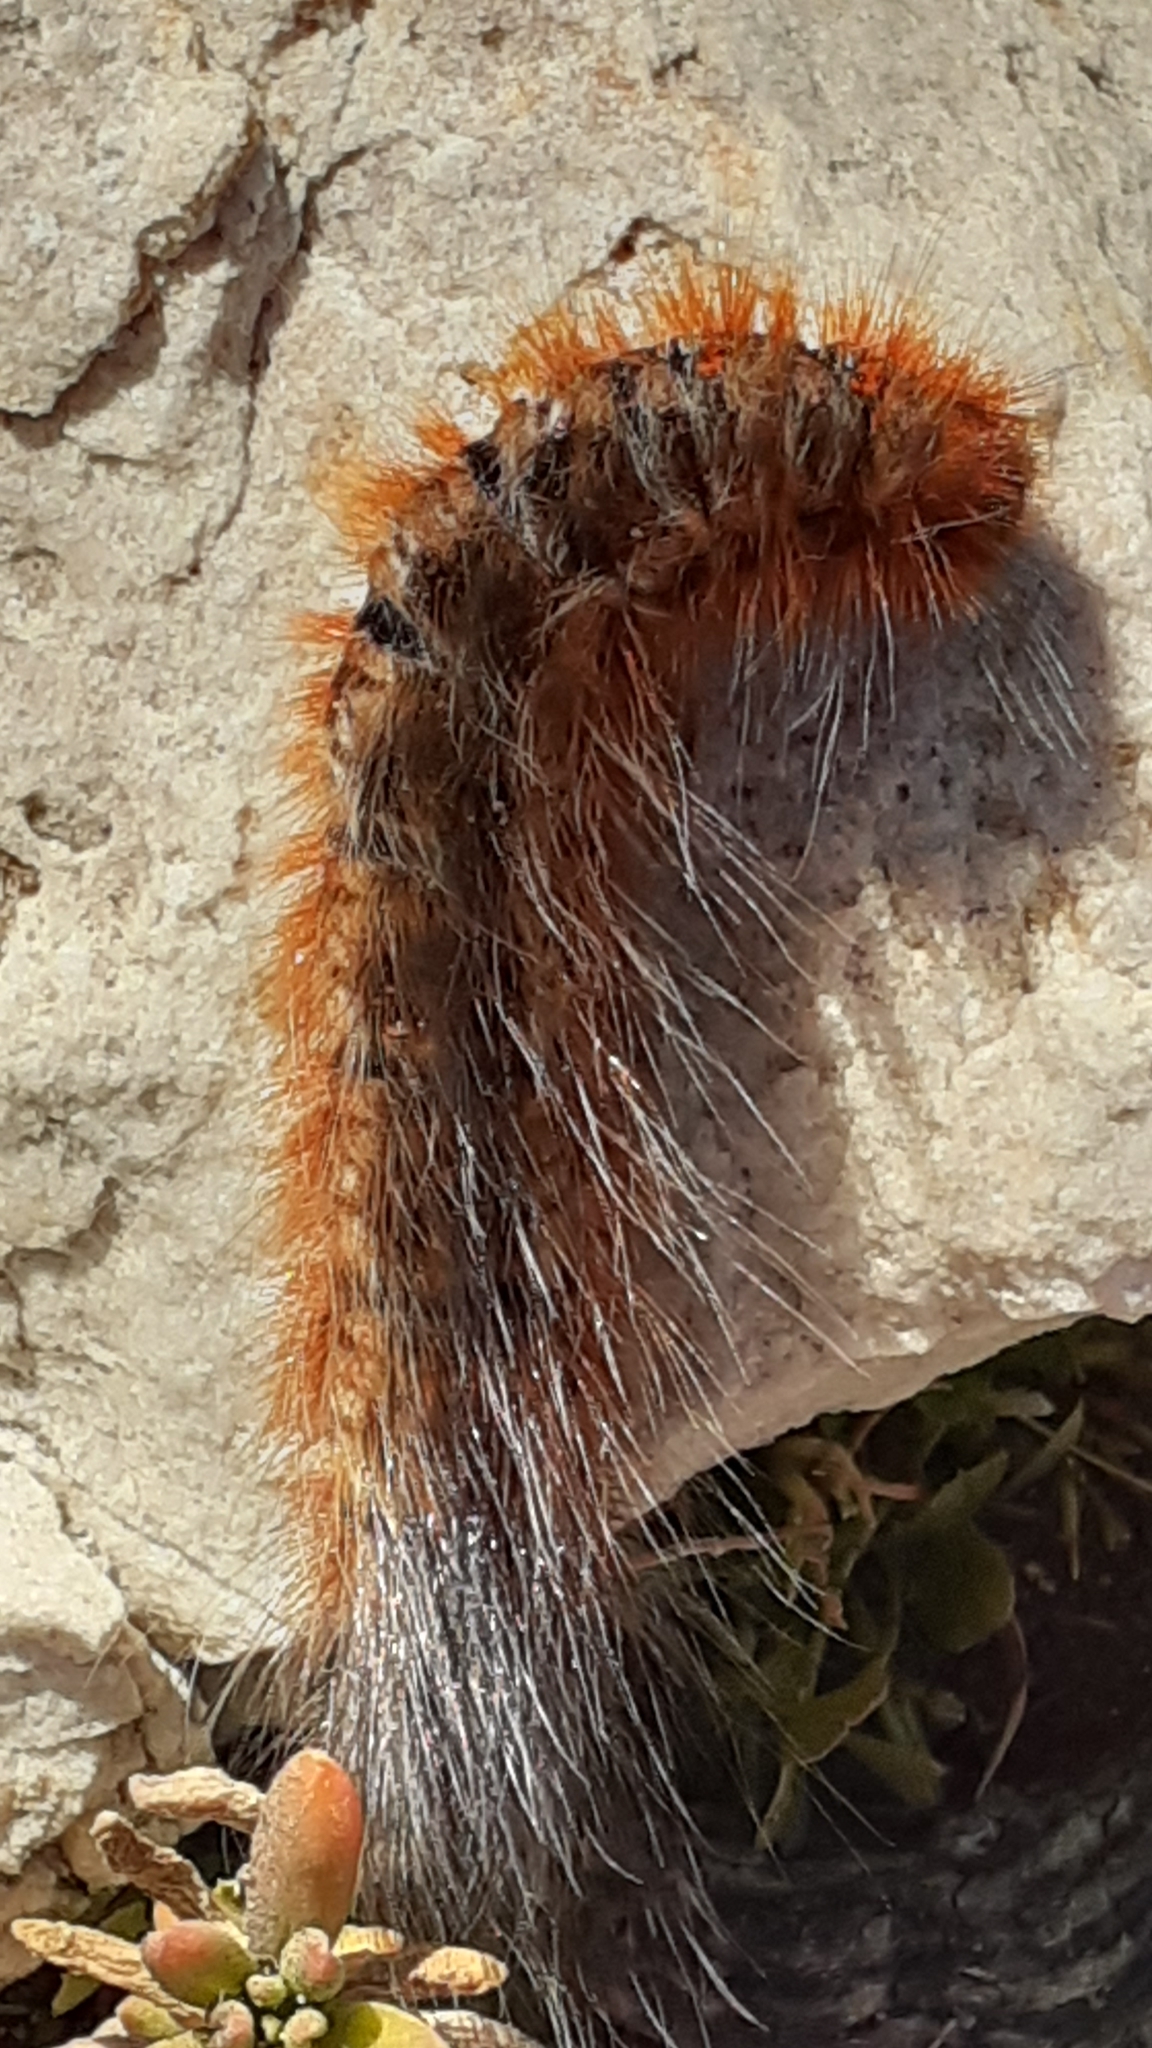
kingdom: Animalia
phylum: Arthropoda
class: Insecta
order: Lepidoptera
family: Lasiocampidae
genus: Mesocelis
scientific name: Mesocelis monticola
